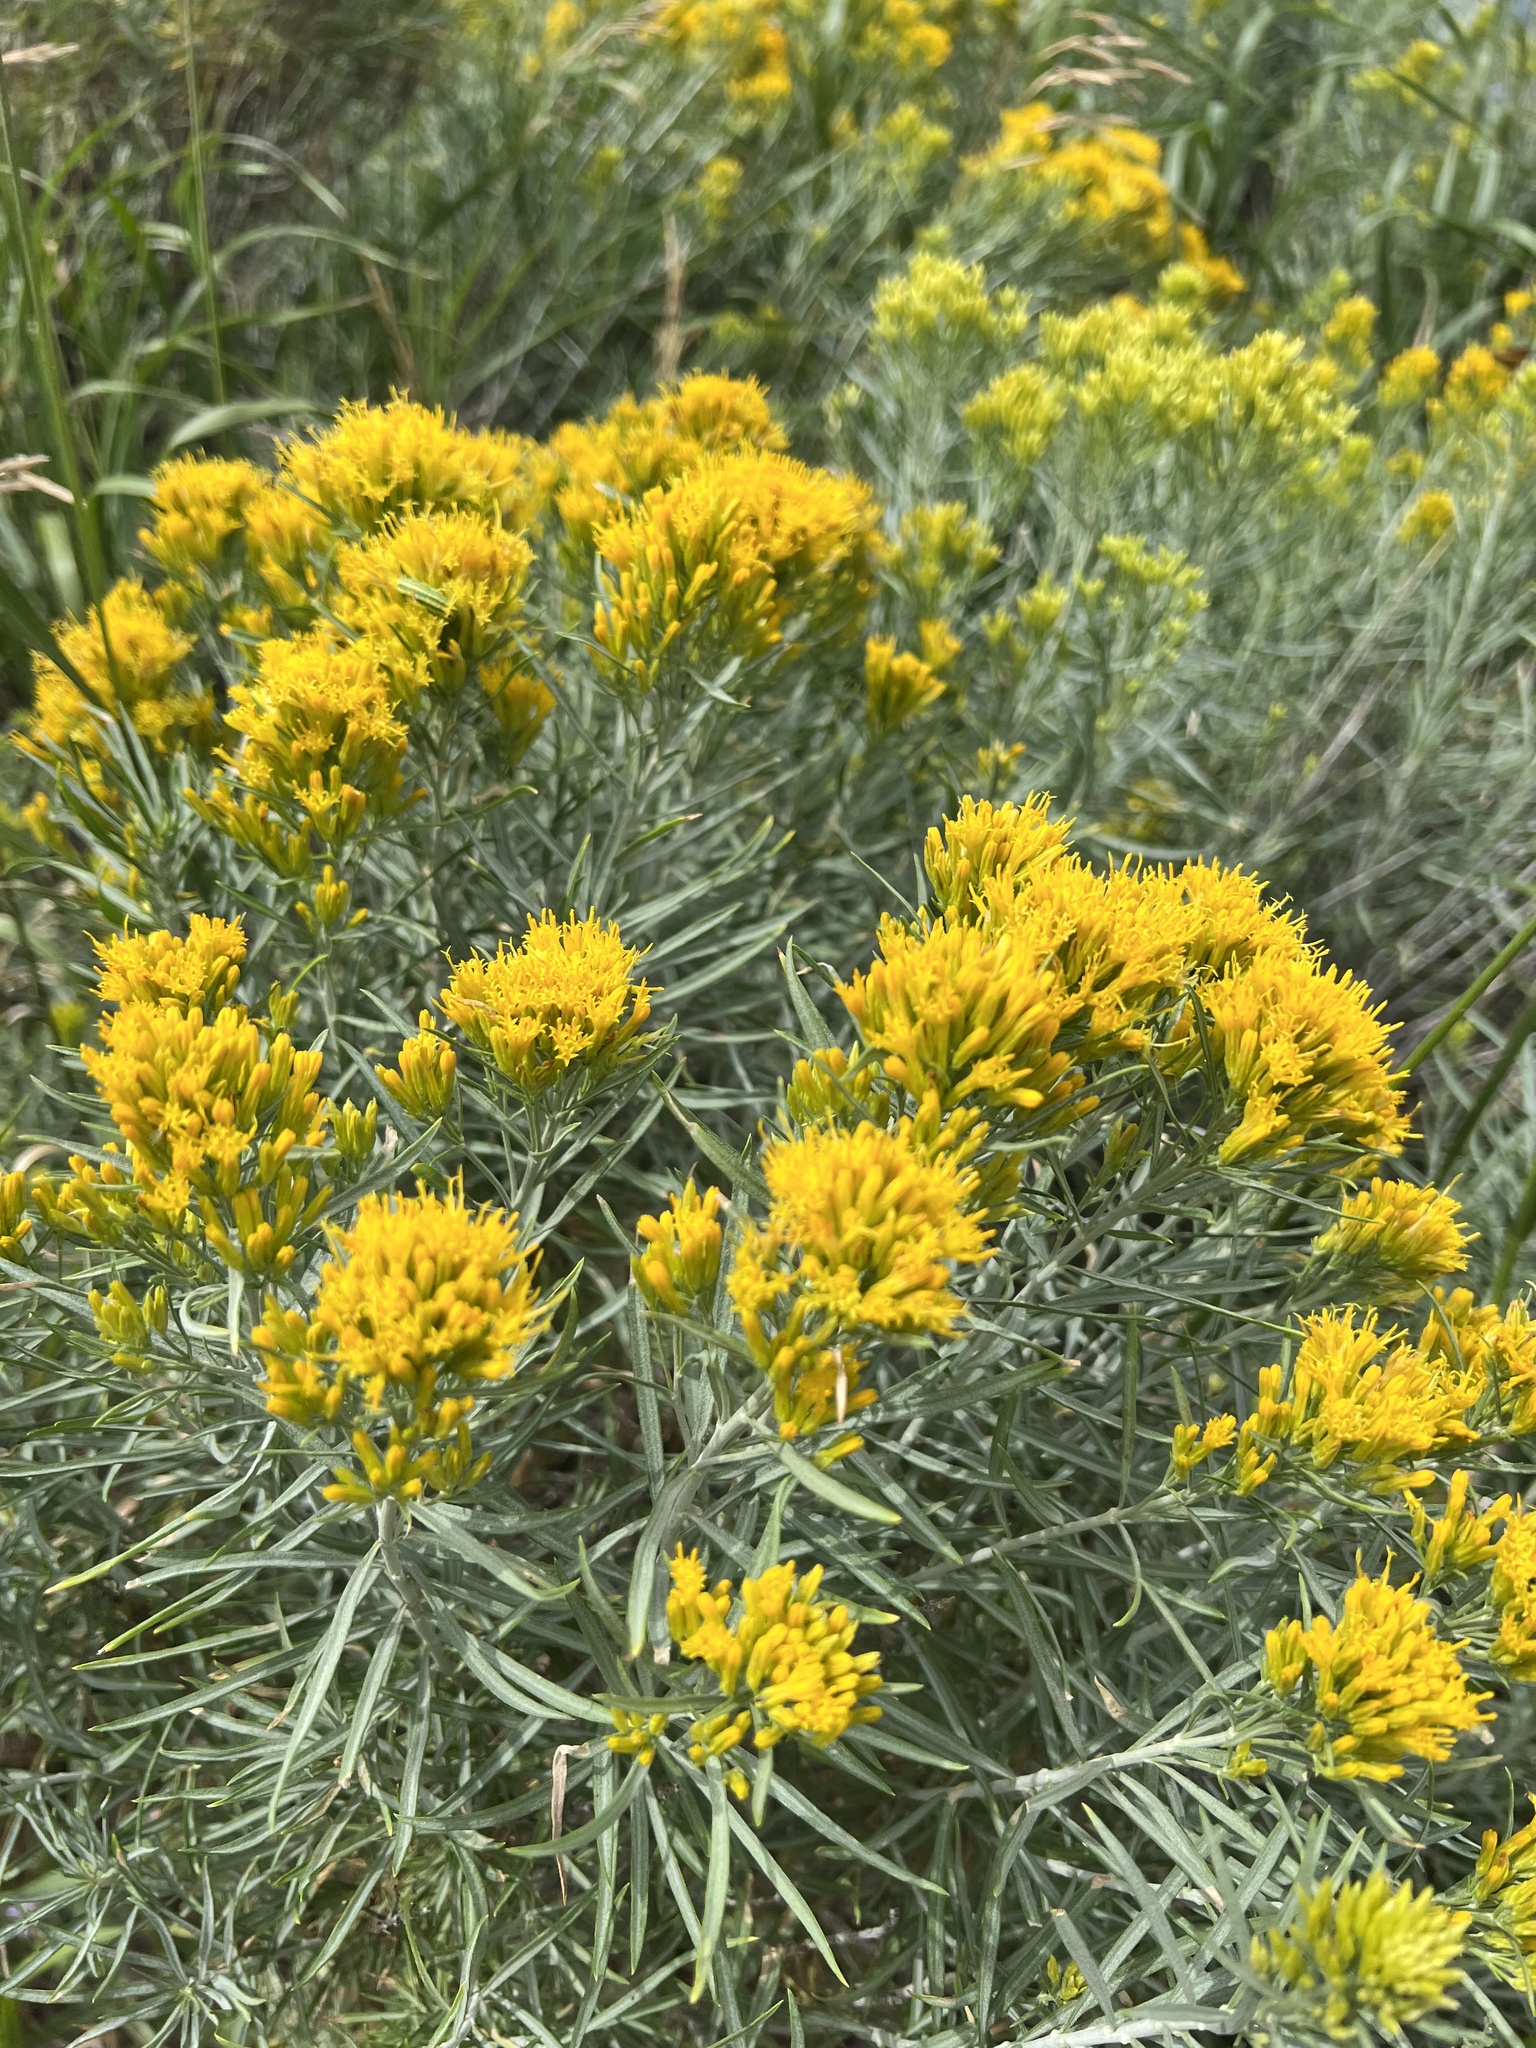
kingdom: Plantae
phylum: Tracheophyta
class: Magnoliopsida
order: Asterales
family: Asteraceae
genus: Ericameria
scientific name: Ericameria nauseosa
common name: Rubber rabbitbrush
